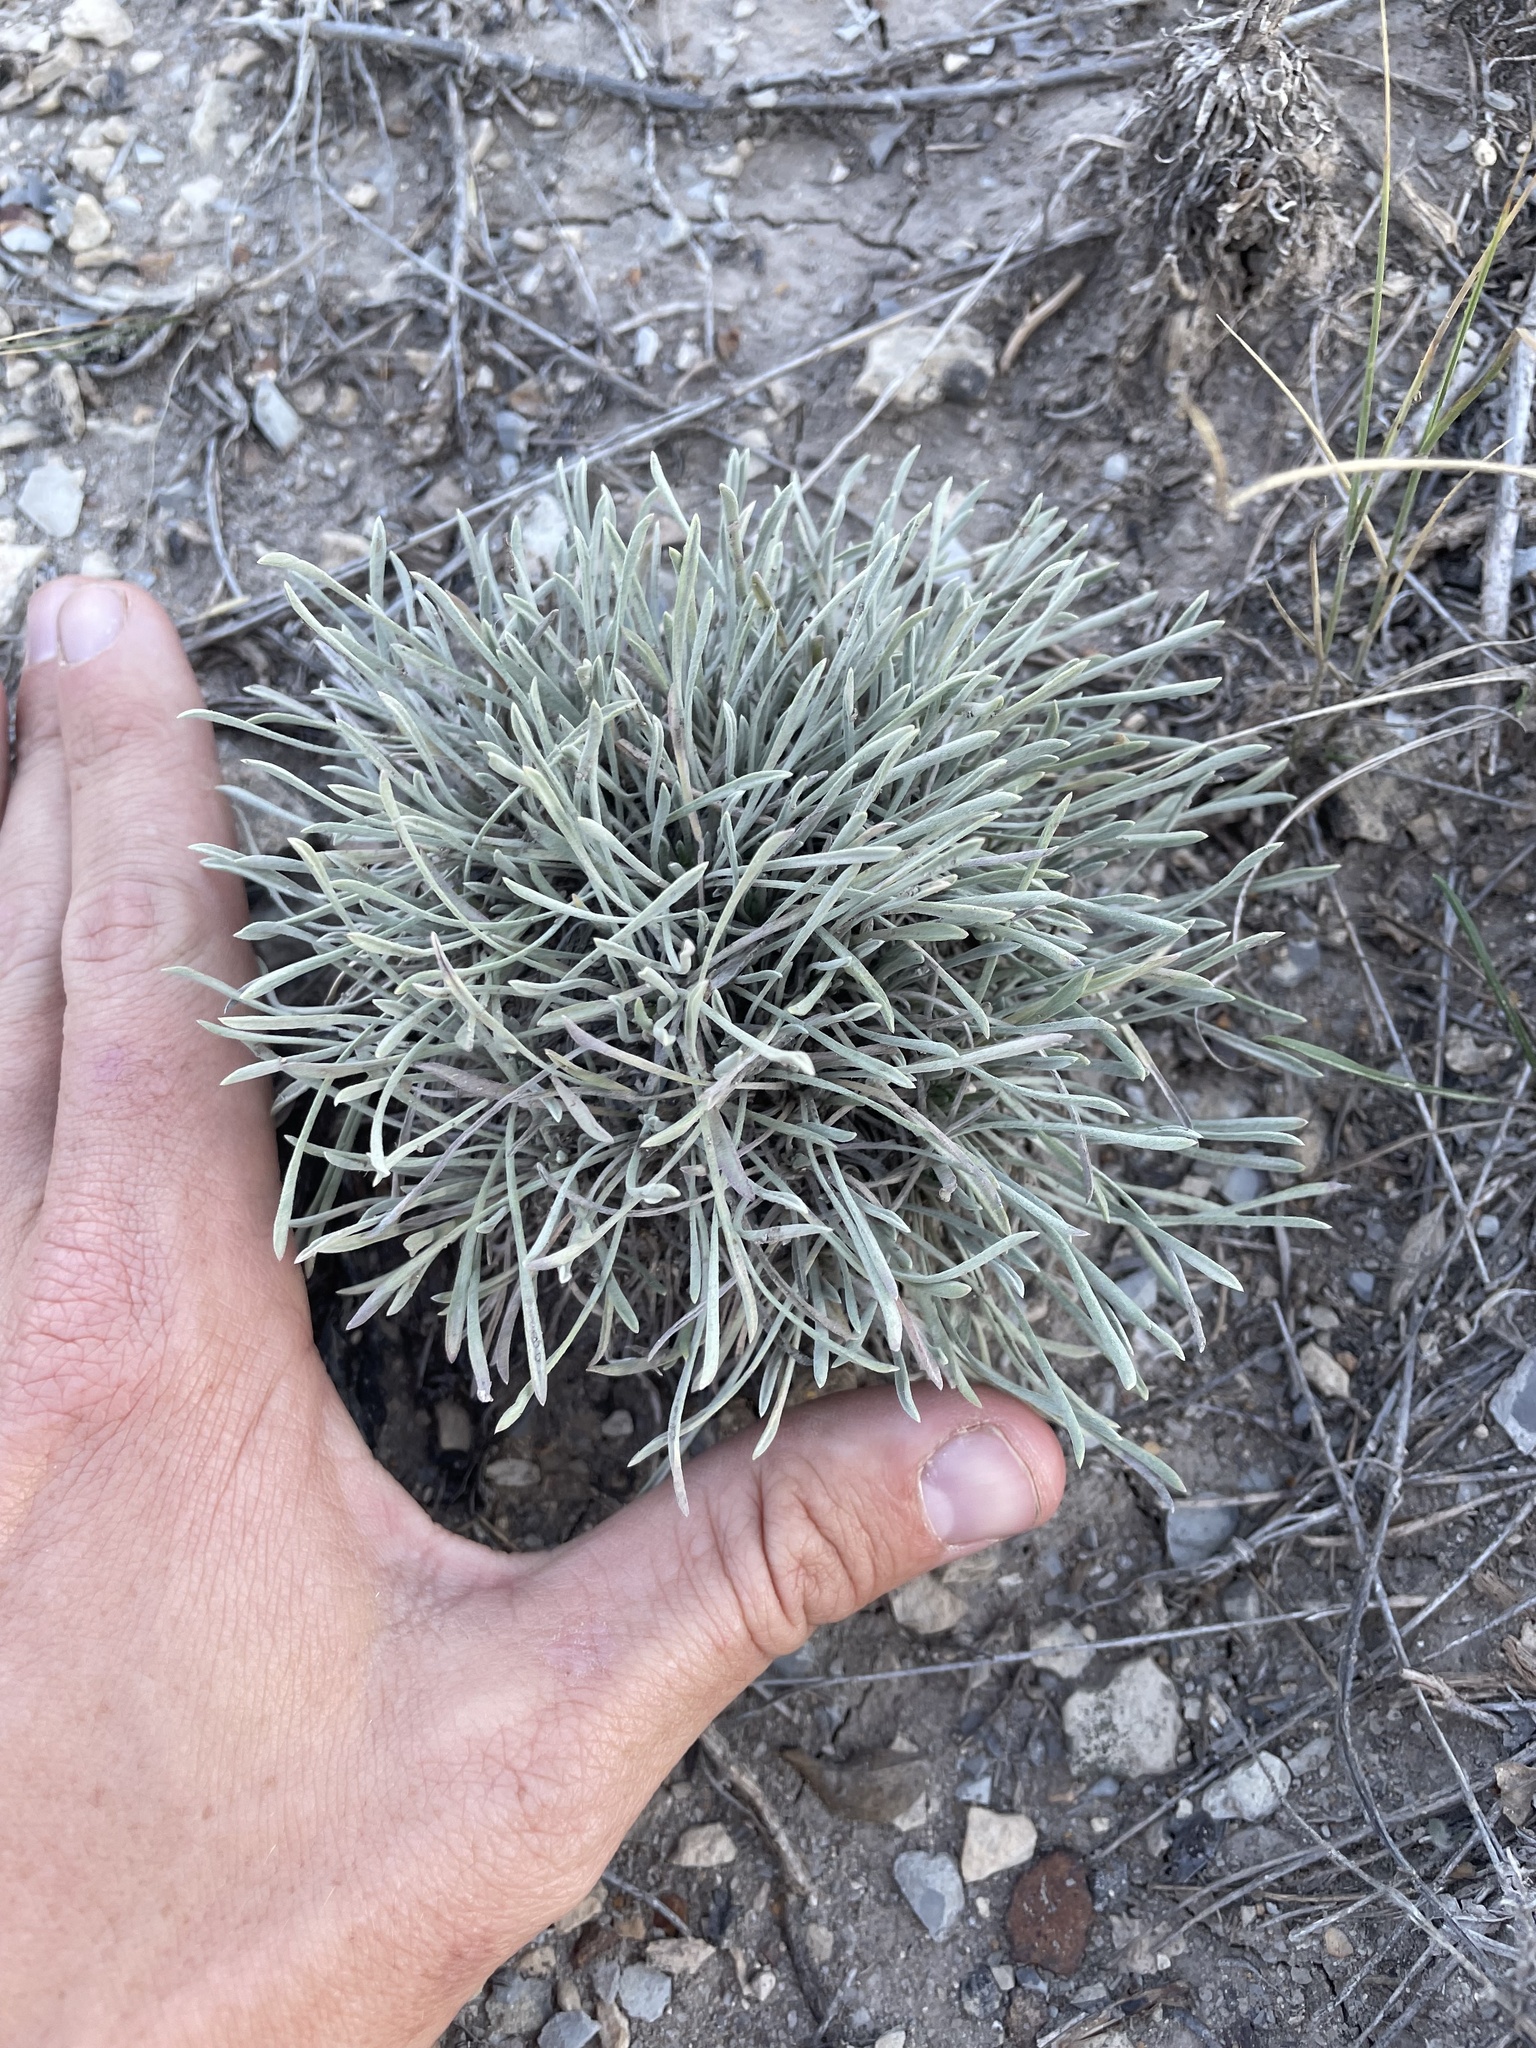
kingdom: Plantae
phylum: Tracheophyta
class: Magnoliopsida
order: Asterales
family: Asteraceae
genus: Townsendia
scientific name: Townsendia hookeri
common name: Hooker's townsend daisy
